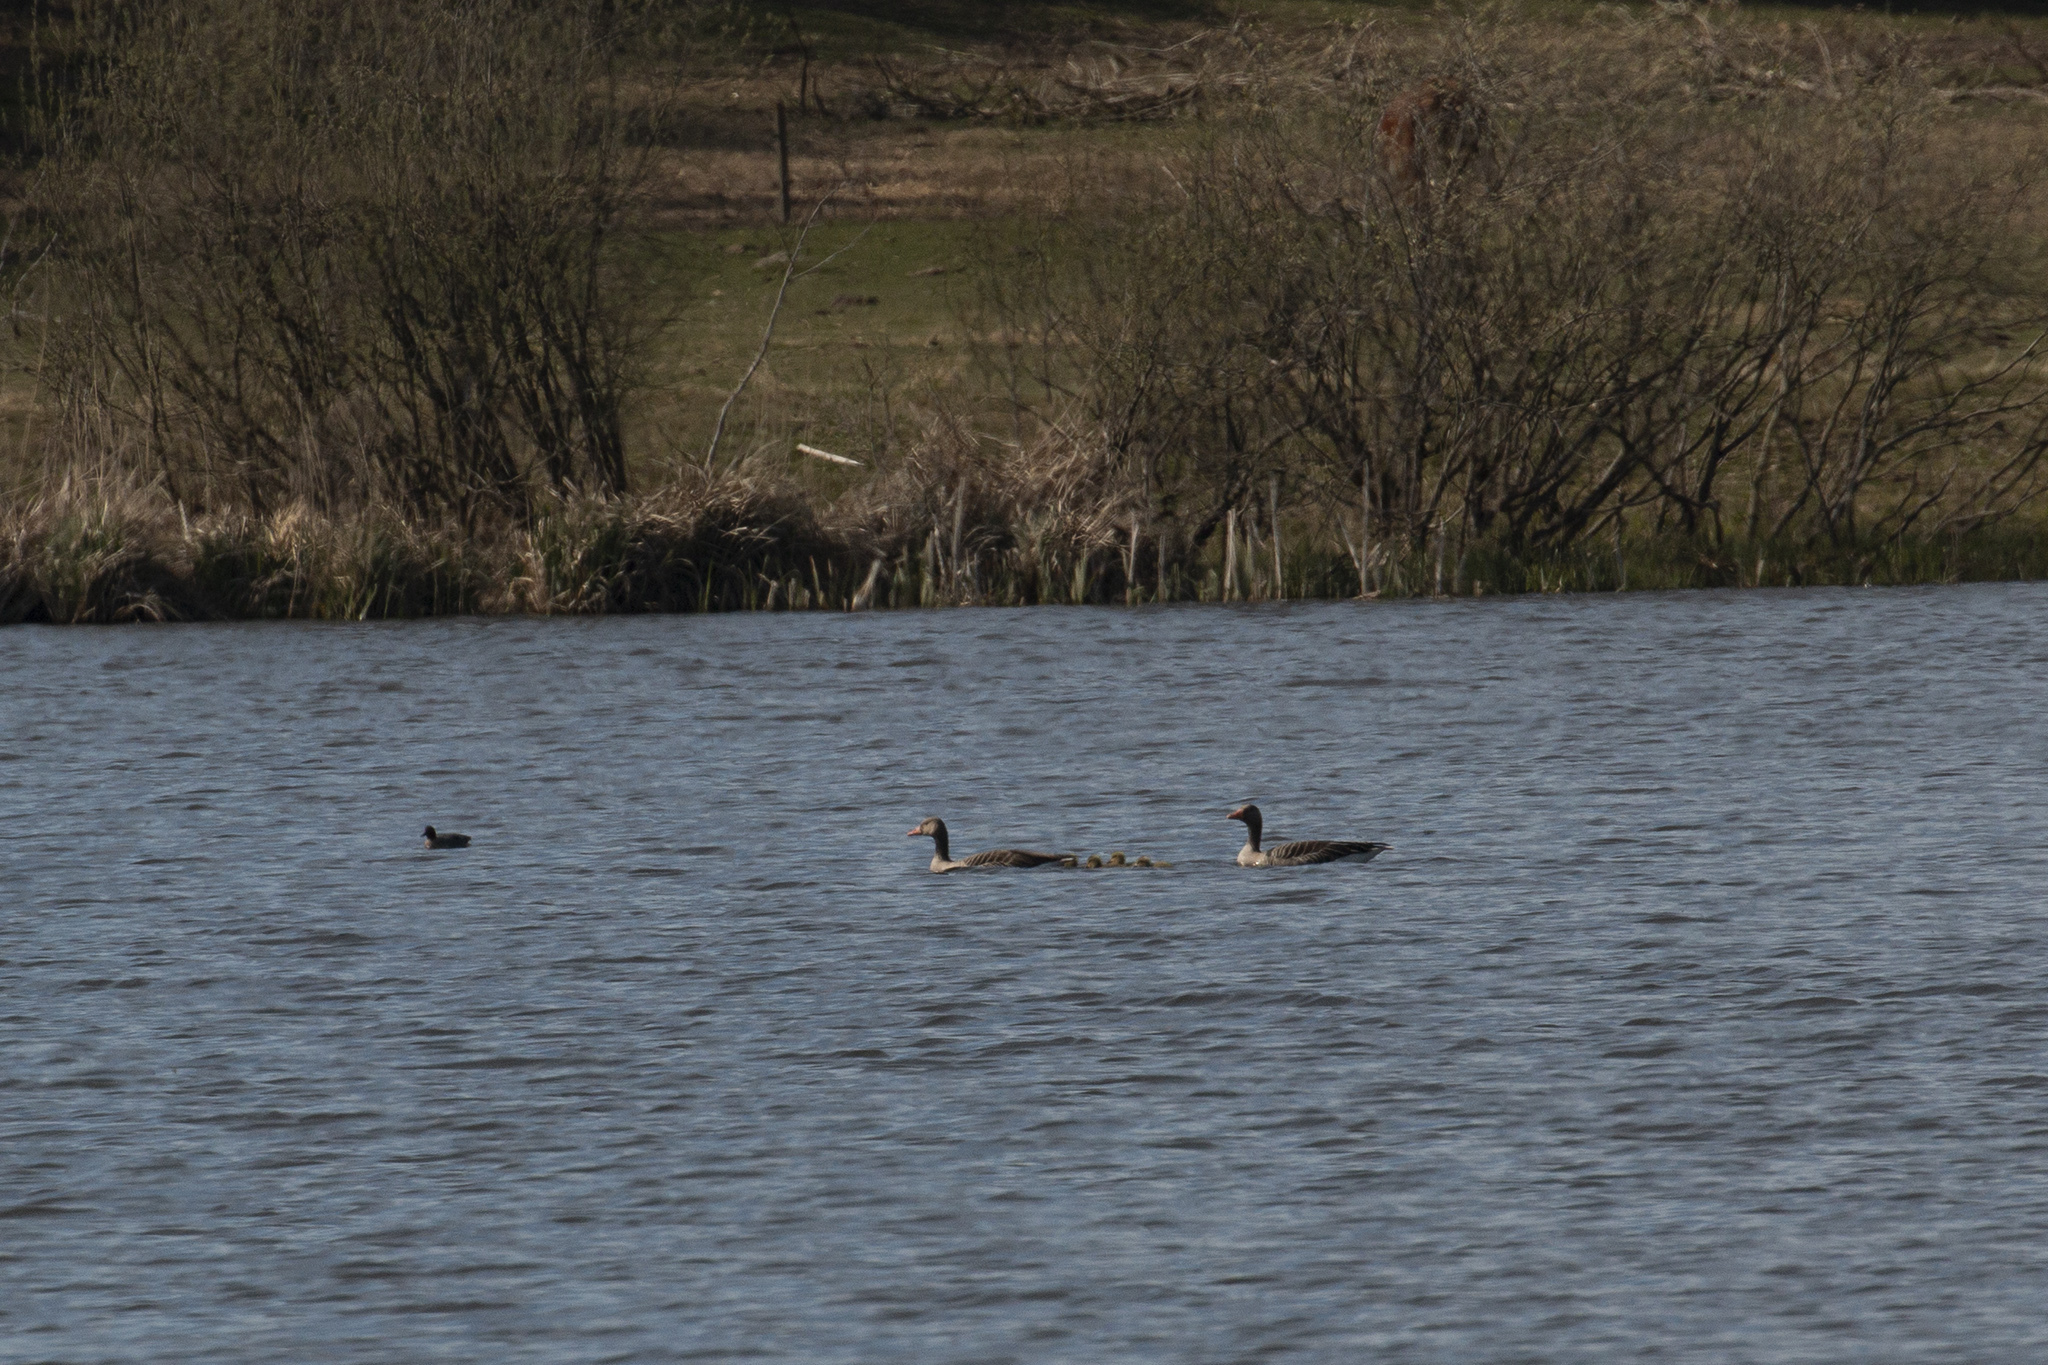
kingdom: Animalia
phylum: Chordata
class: Aves
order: Anseriformes
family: Anatidae
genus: Anser
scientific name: Anser anser
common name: Greylag goose
